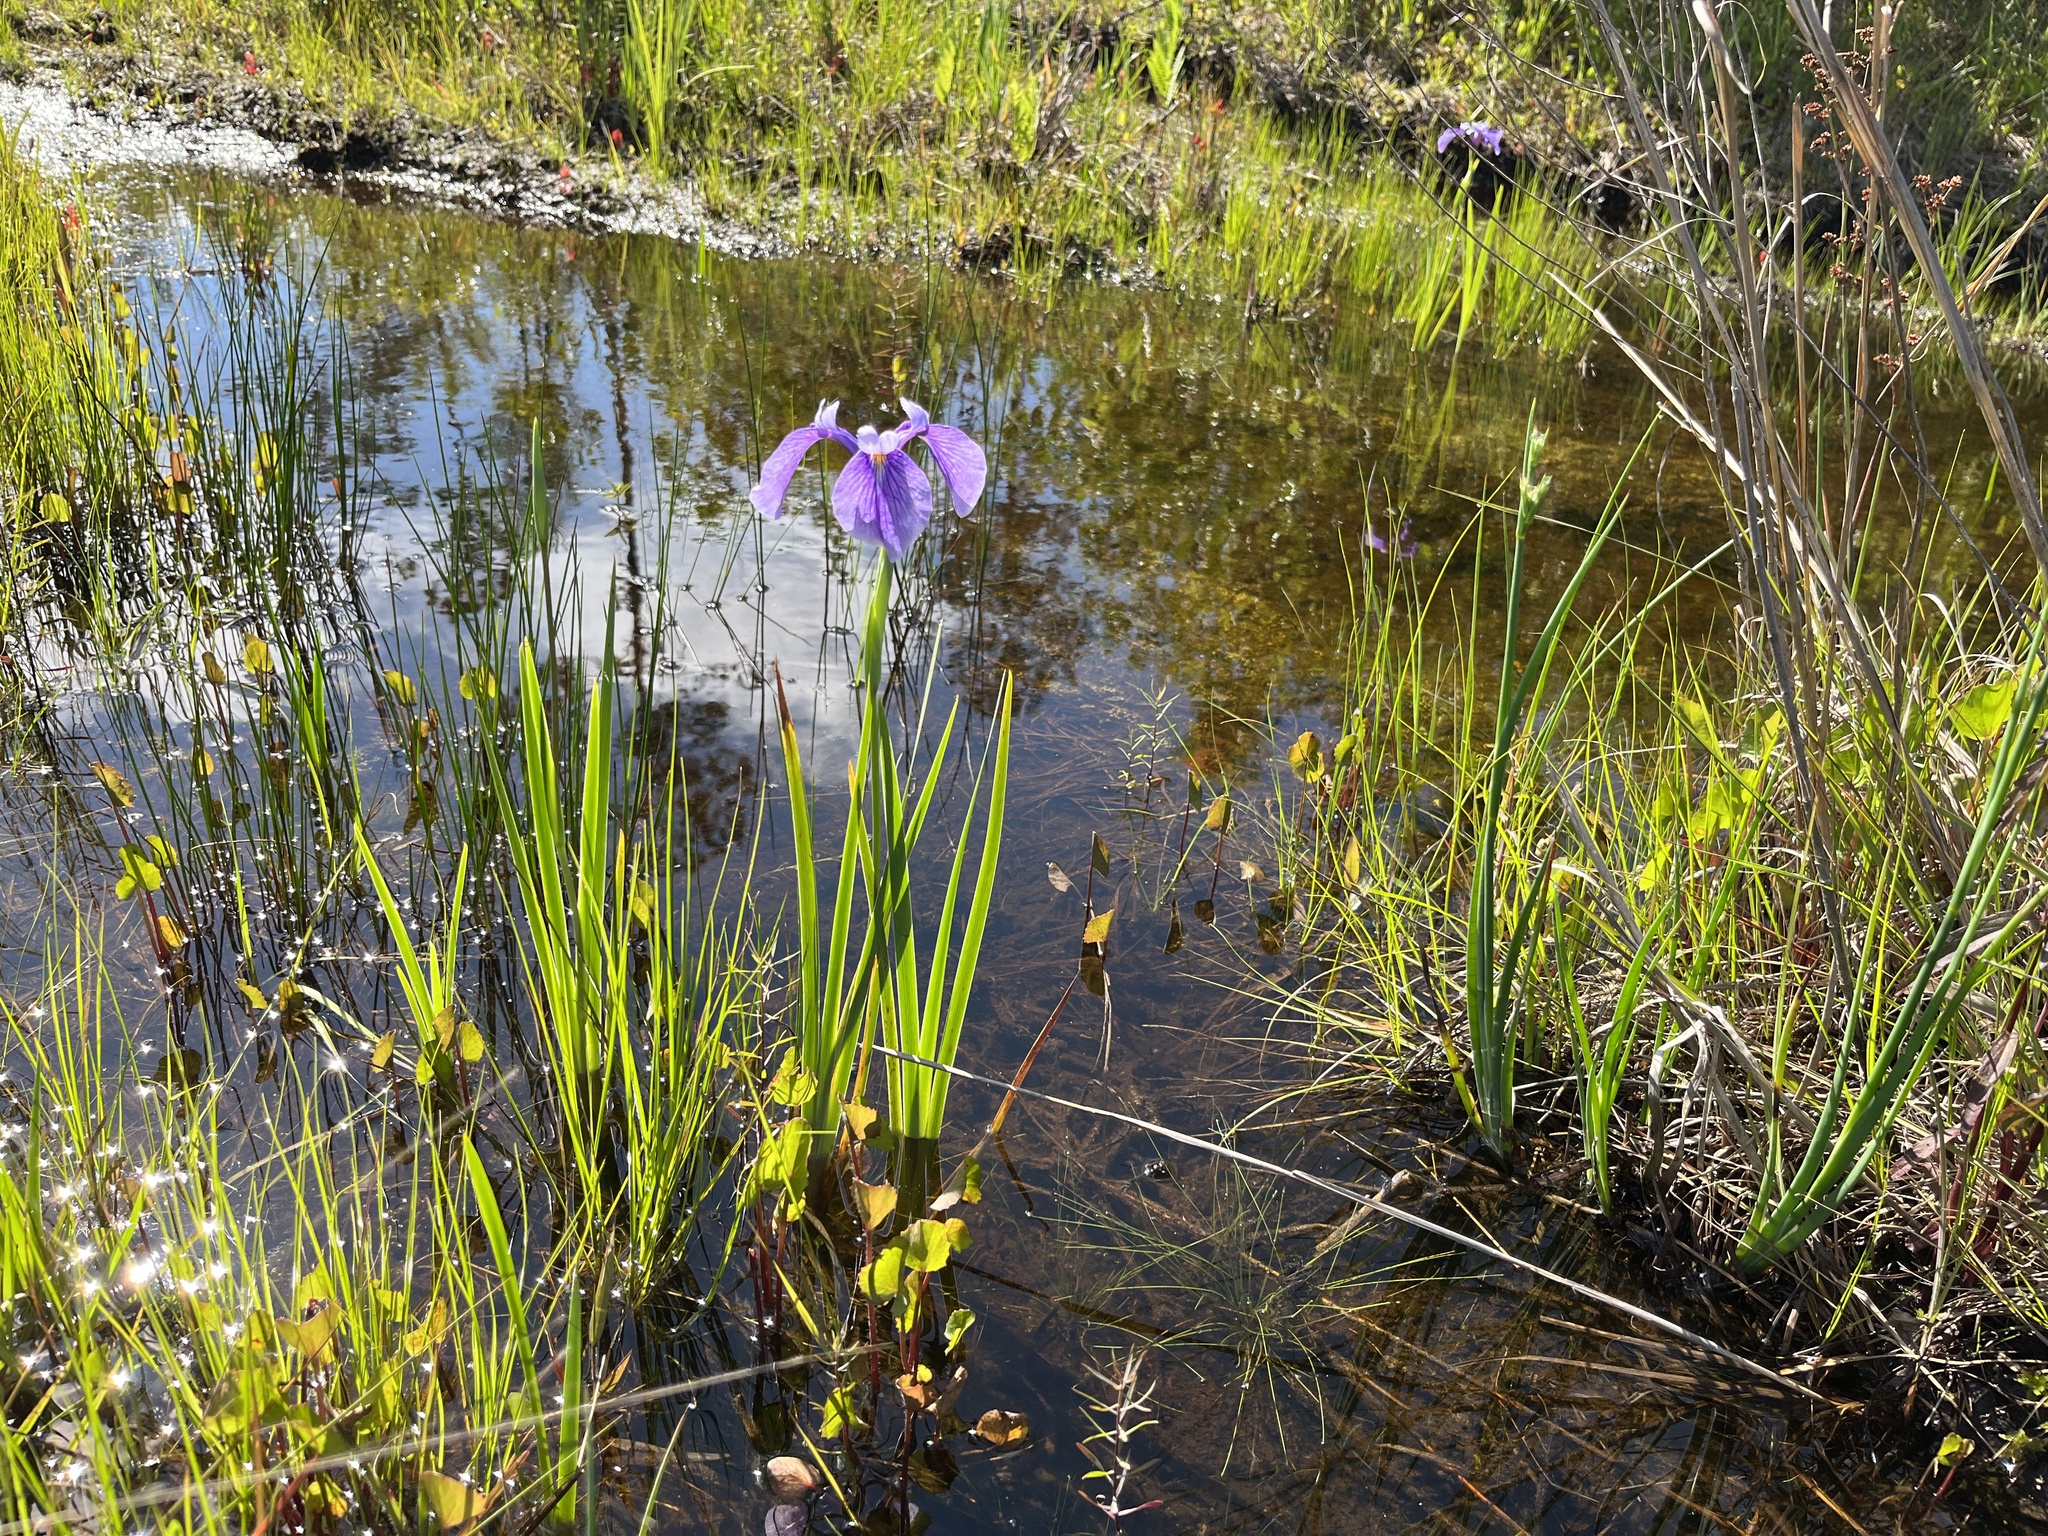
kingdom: Plantae
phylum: Tracheophyta
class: Liliopsida
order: Asparagales
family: Iridaceae
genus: Iris
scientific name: Iris tridentata
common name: Savannah iris
